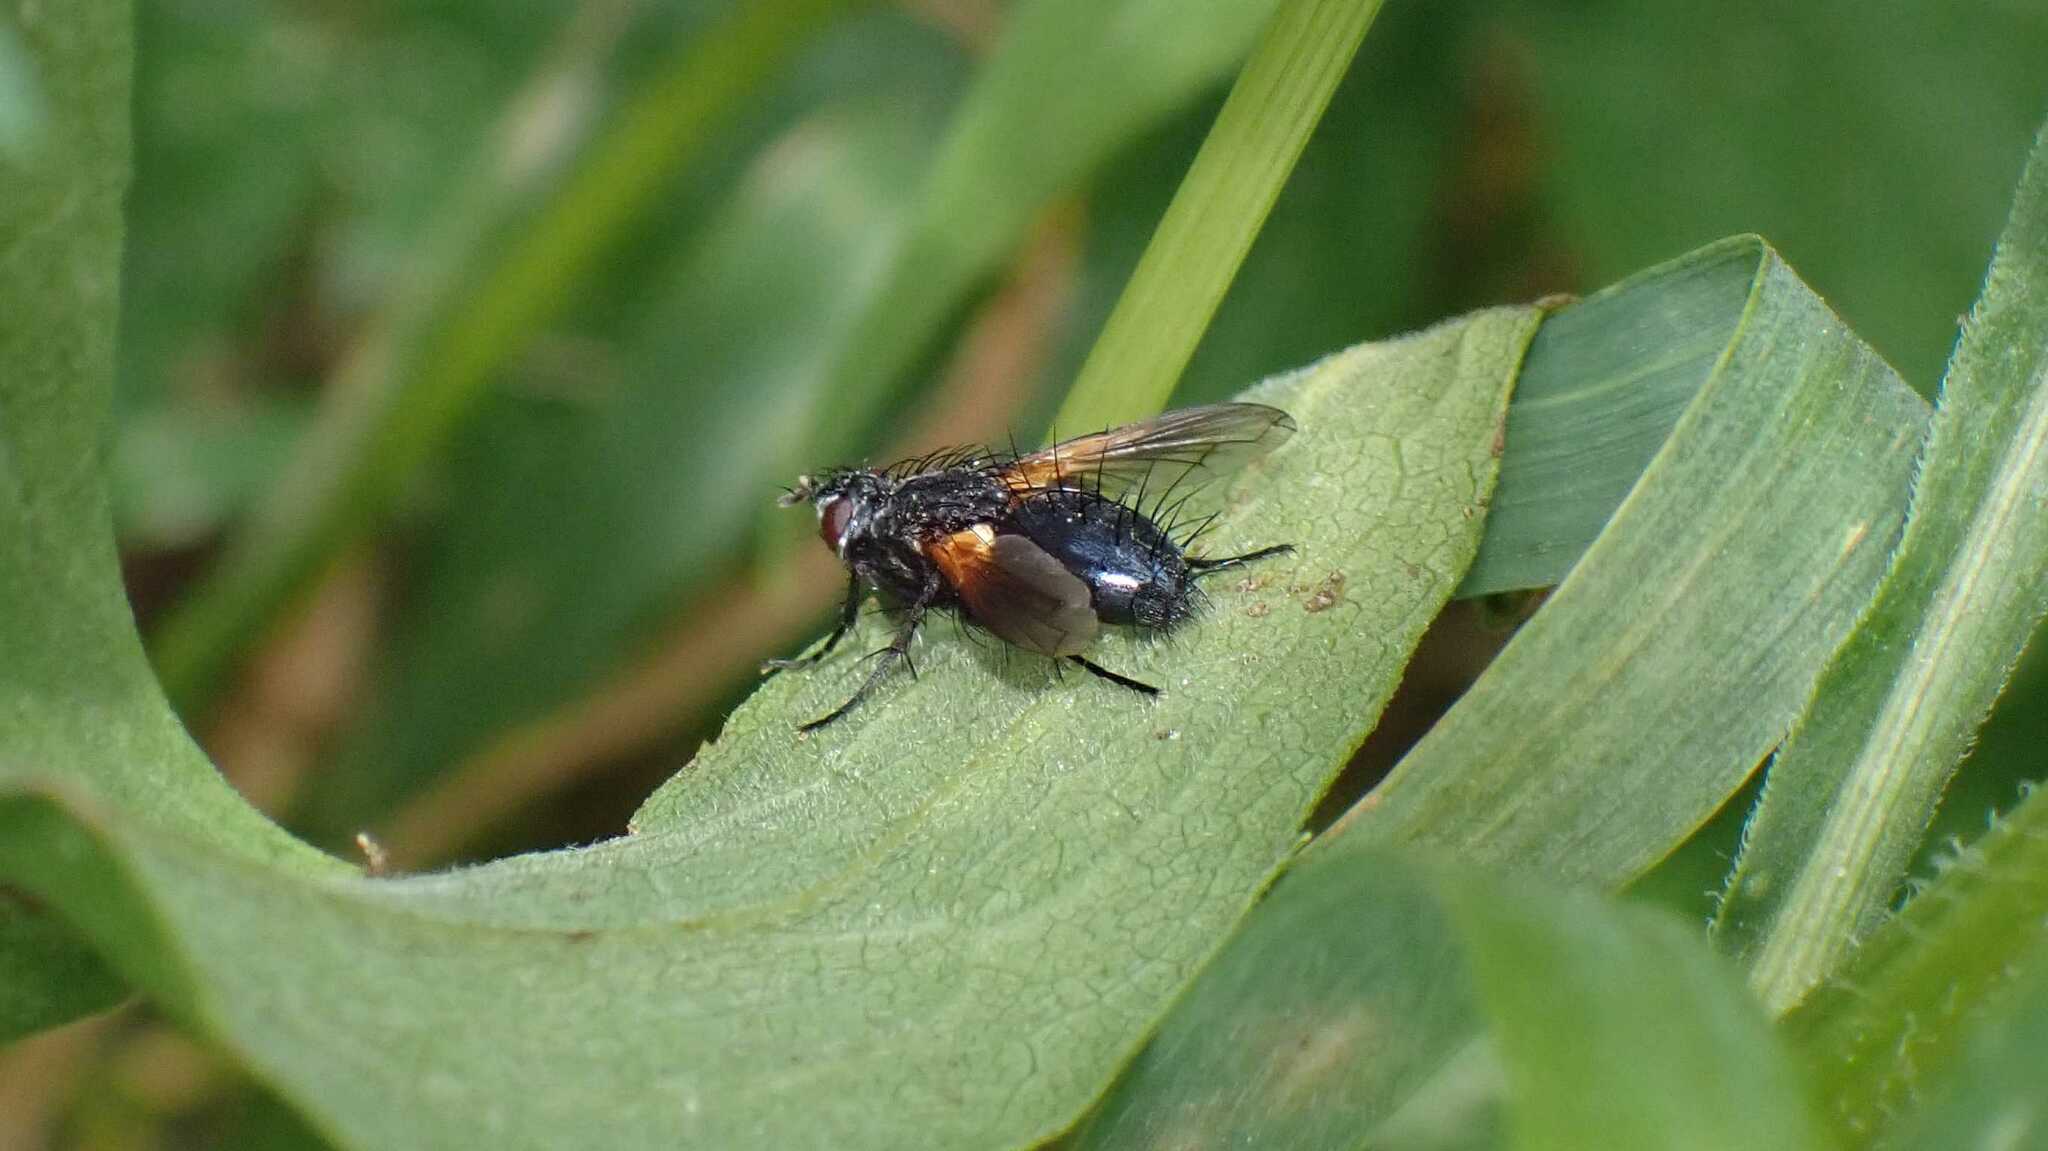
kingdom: Animalia
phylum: Arthropoda
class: Insecta
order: Diptera
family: Tachinidae
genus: Zophomyia
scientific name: Zophomyia temula
